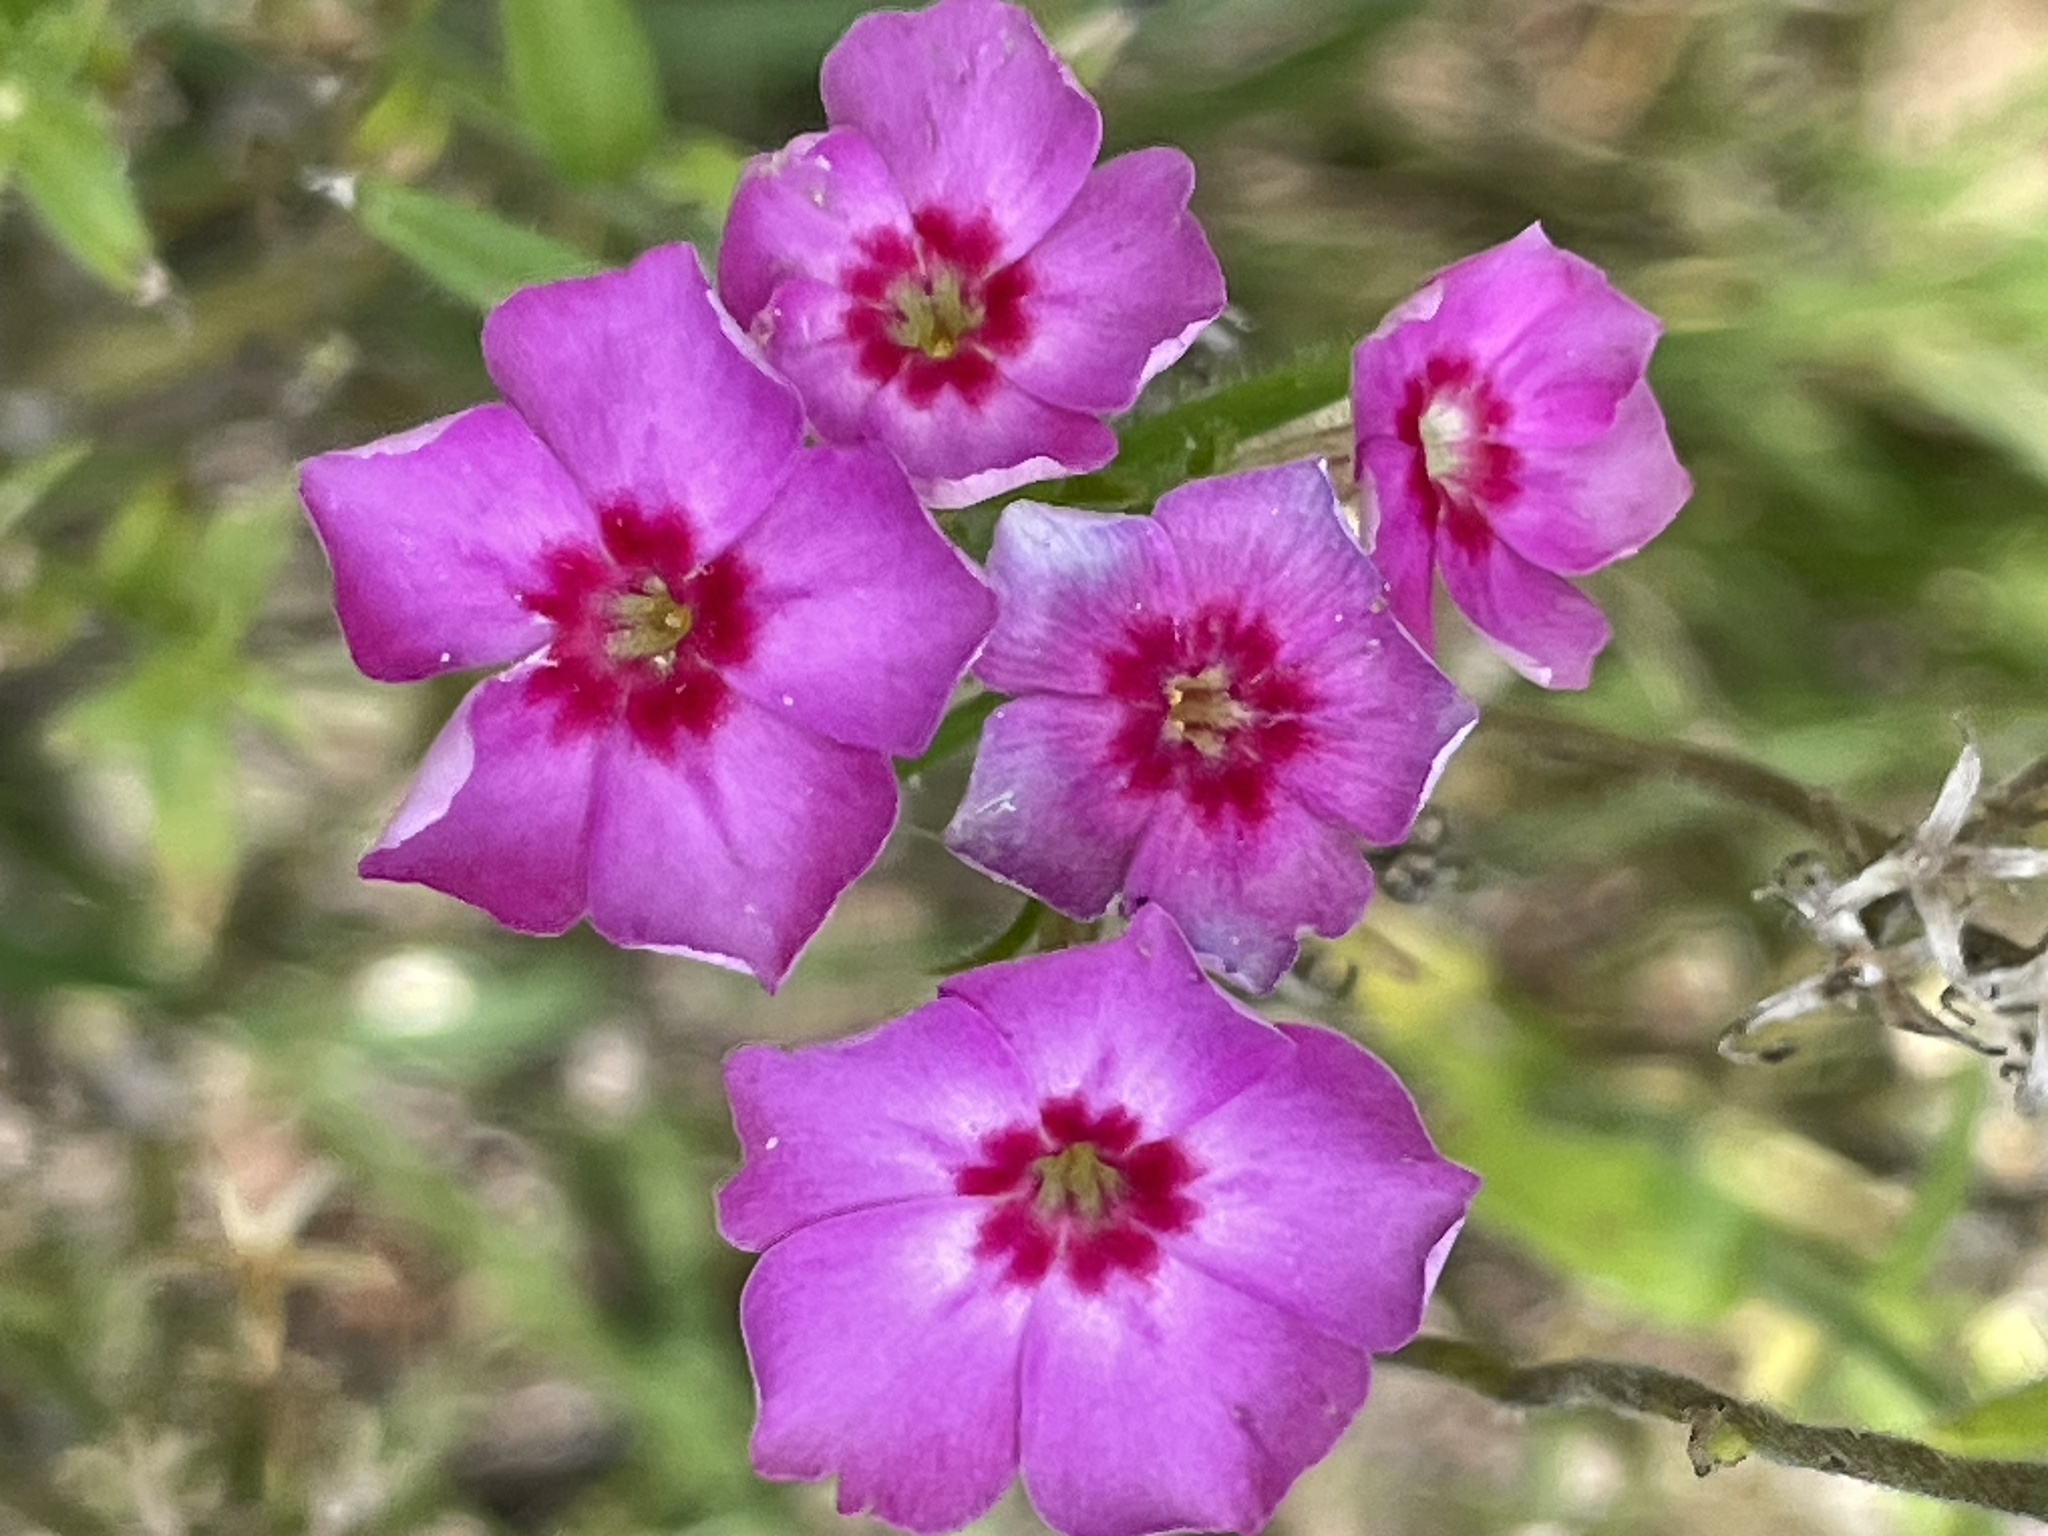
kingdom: Plantae
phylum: Tracheophyta
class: Magnoliopsida
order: Ericales
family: Polemoniaceae
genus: Phlox
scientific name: Phlox drummondii
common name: Drummond's phlox
